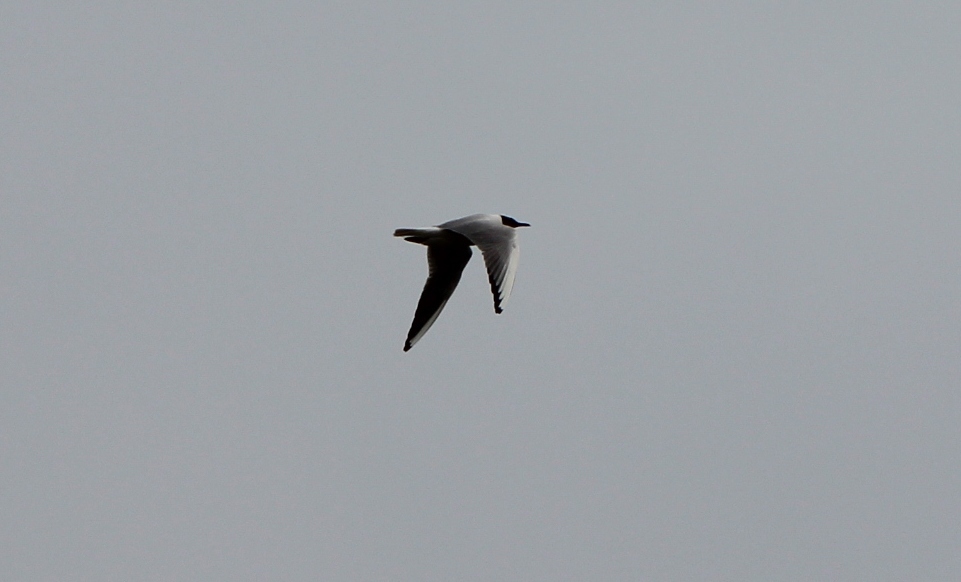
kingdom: Animalia
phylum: Chordata
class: Aves
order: Charadriiformes
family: Laridae
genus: Chroicocephalus
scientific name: Chroicocephalus ridibundus
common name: Black-headed gull
